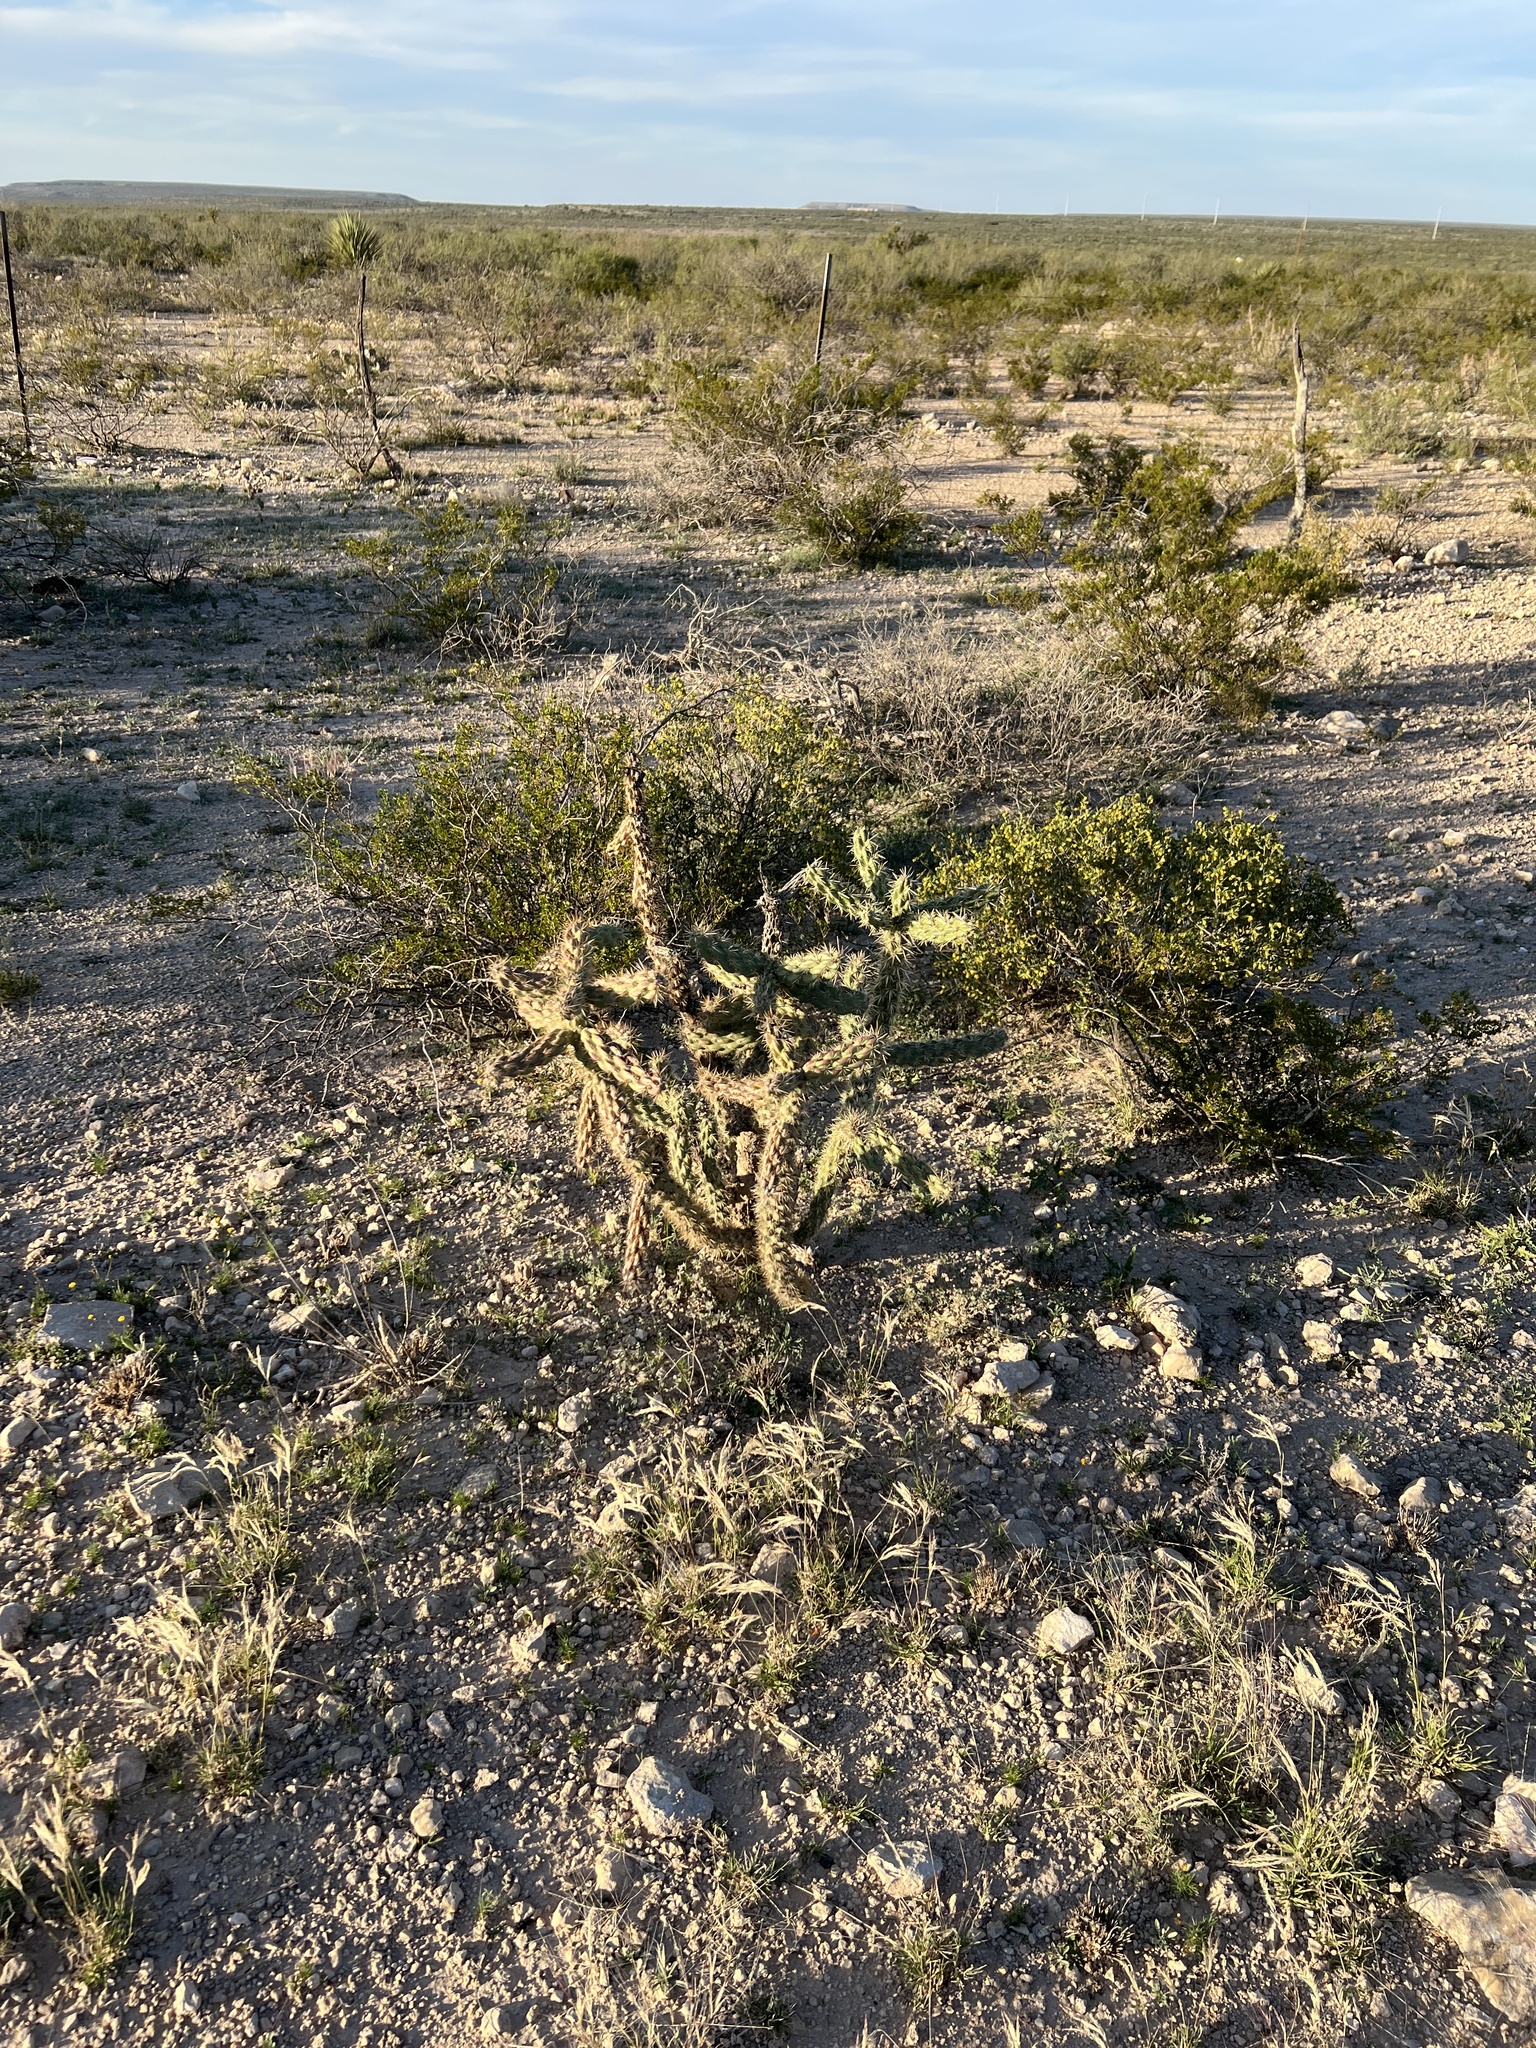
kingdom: Plantae
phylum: Tracheophyta
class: Magnoliopsida
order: Caryophyllales
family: Cactaceae
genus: Cylindropuntia
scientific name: Cylindropuntia imbricata
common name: Candelabrum cactus
